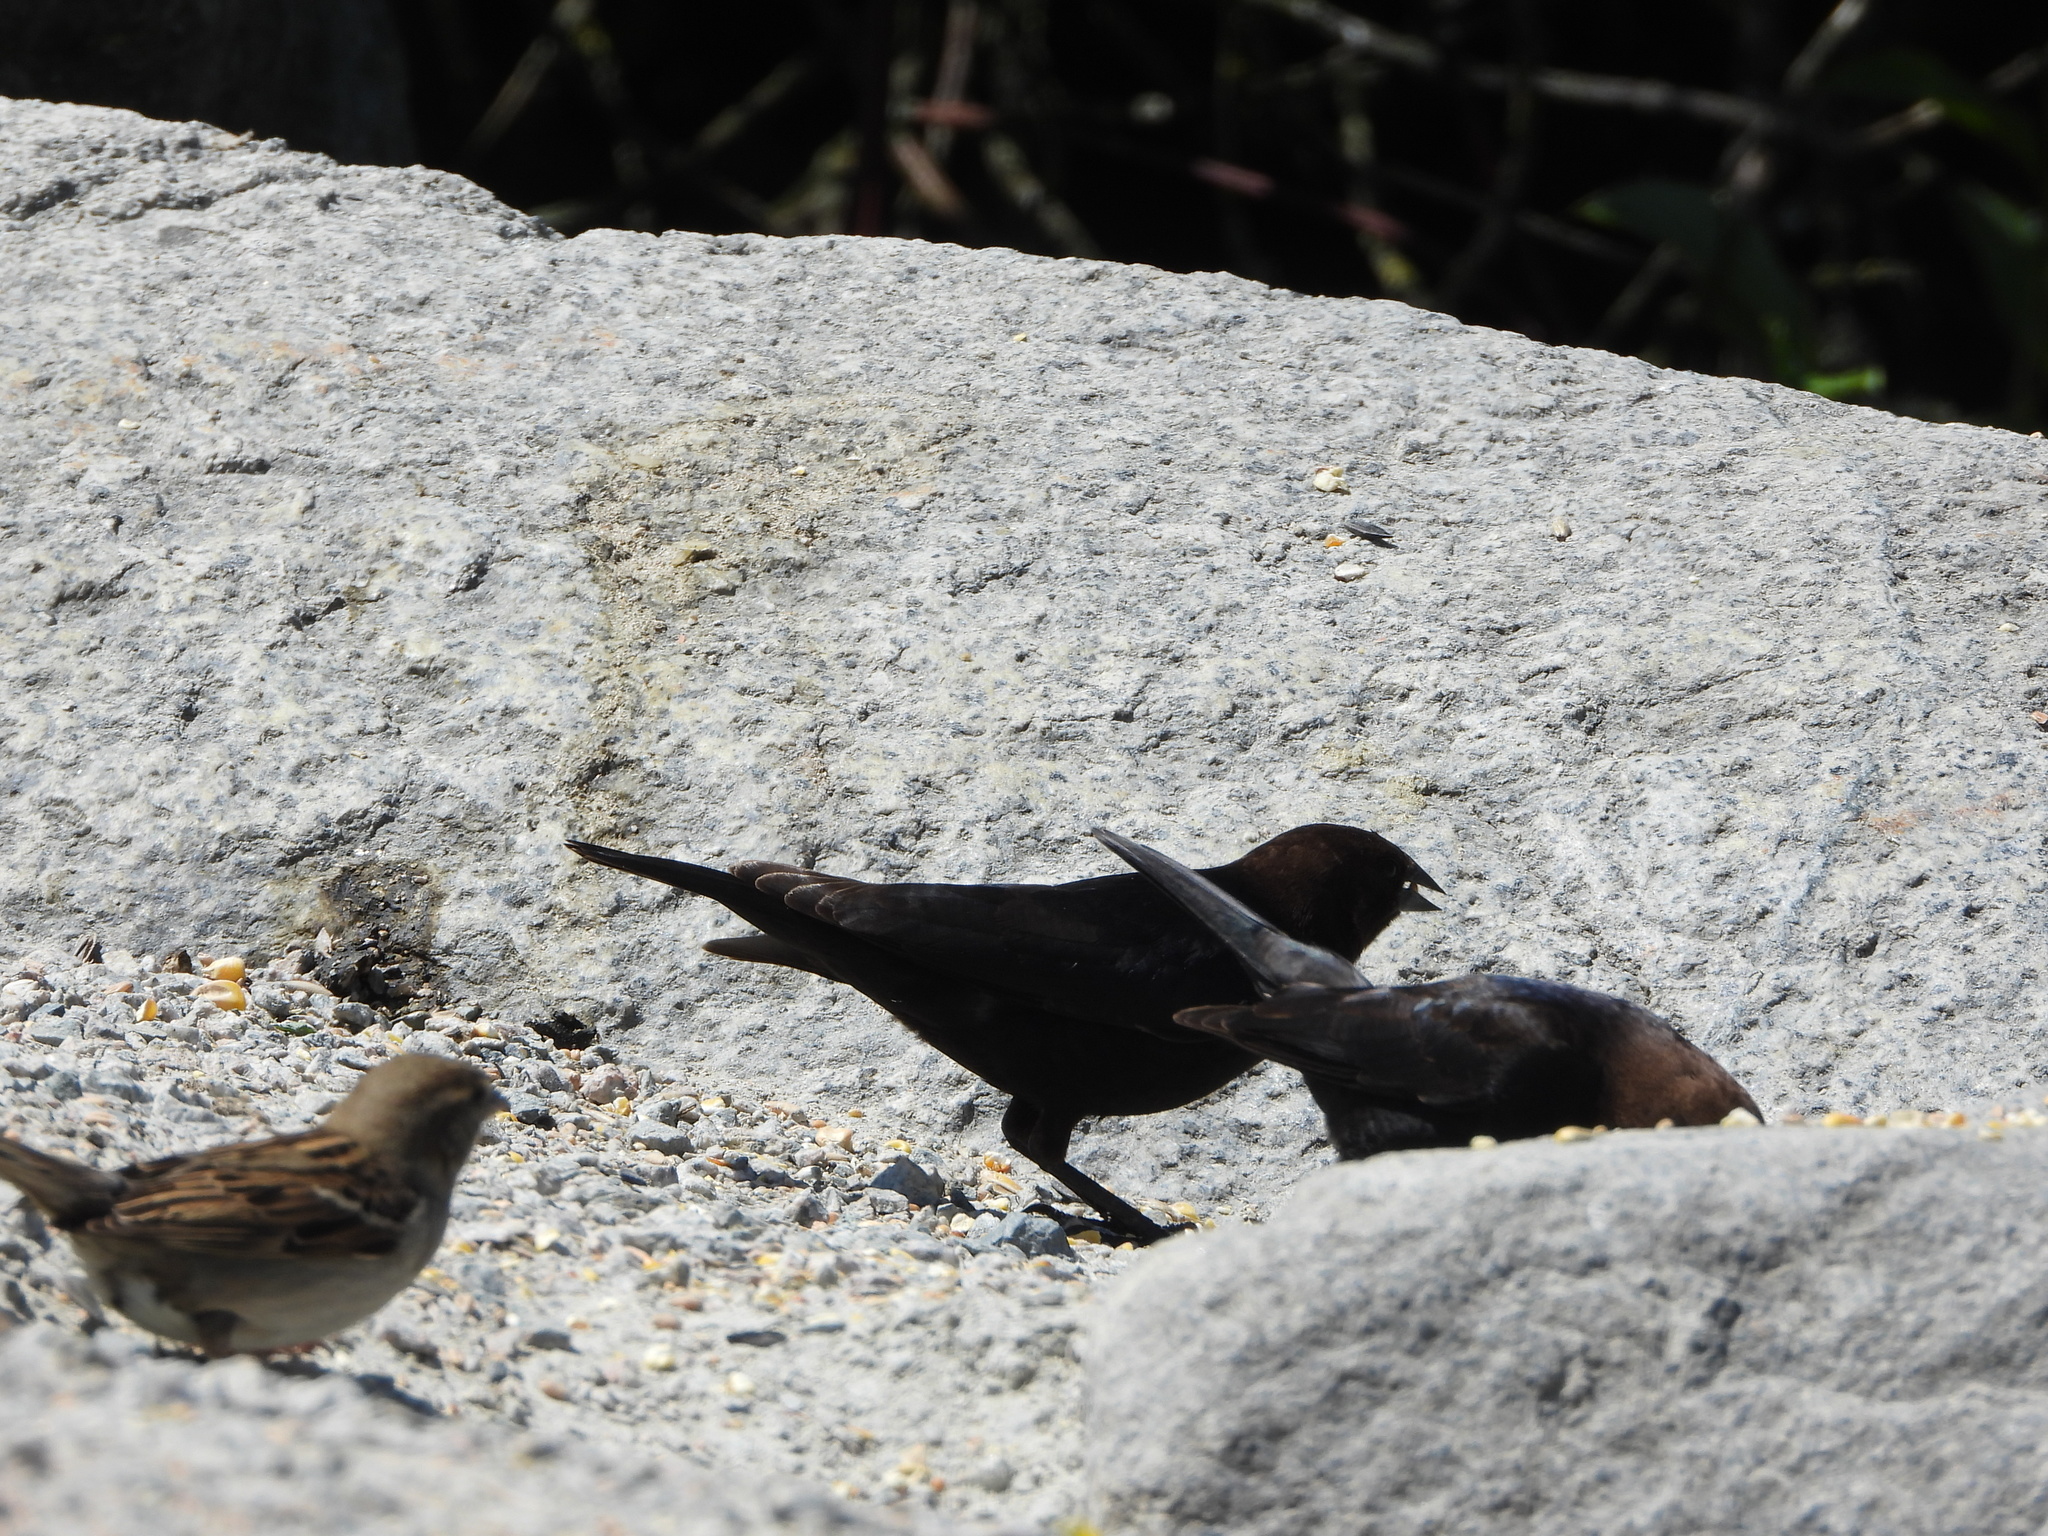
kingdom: Animalia
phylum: Chordata
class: Aves
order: Passeriformes
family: Icteridae
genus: Molothrus
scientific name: Molothrus ater
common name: Brown-headed cowbird
